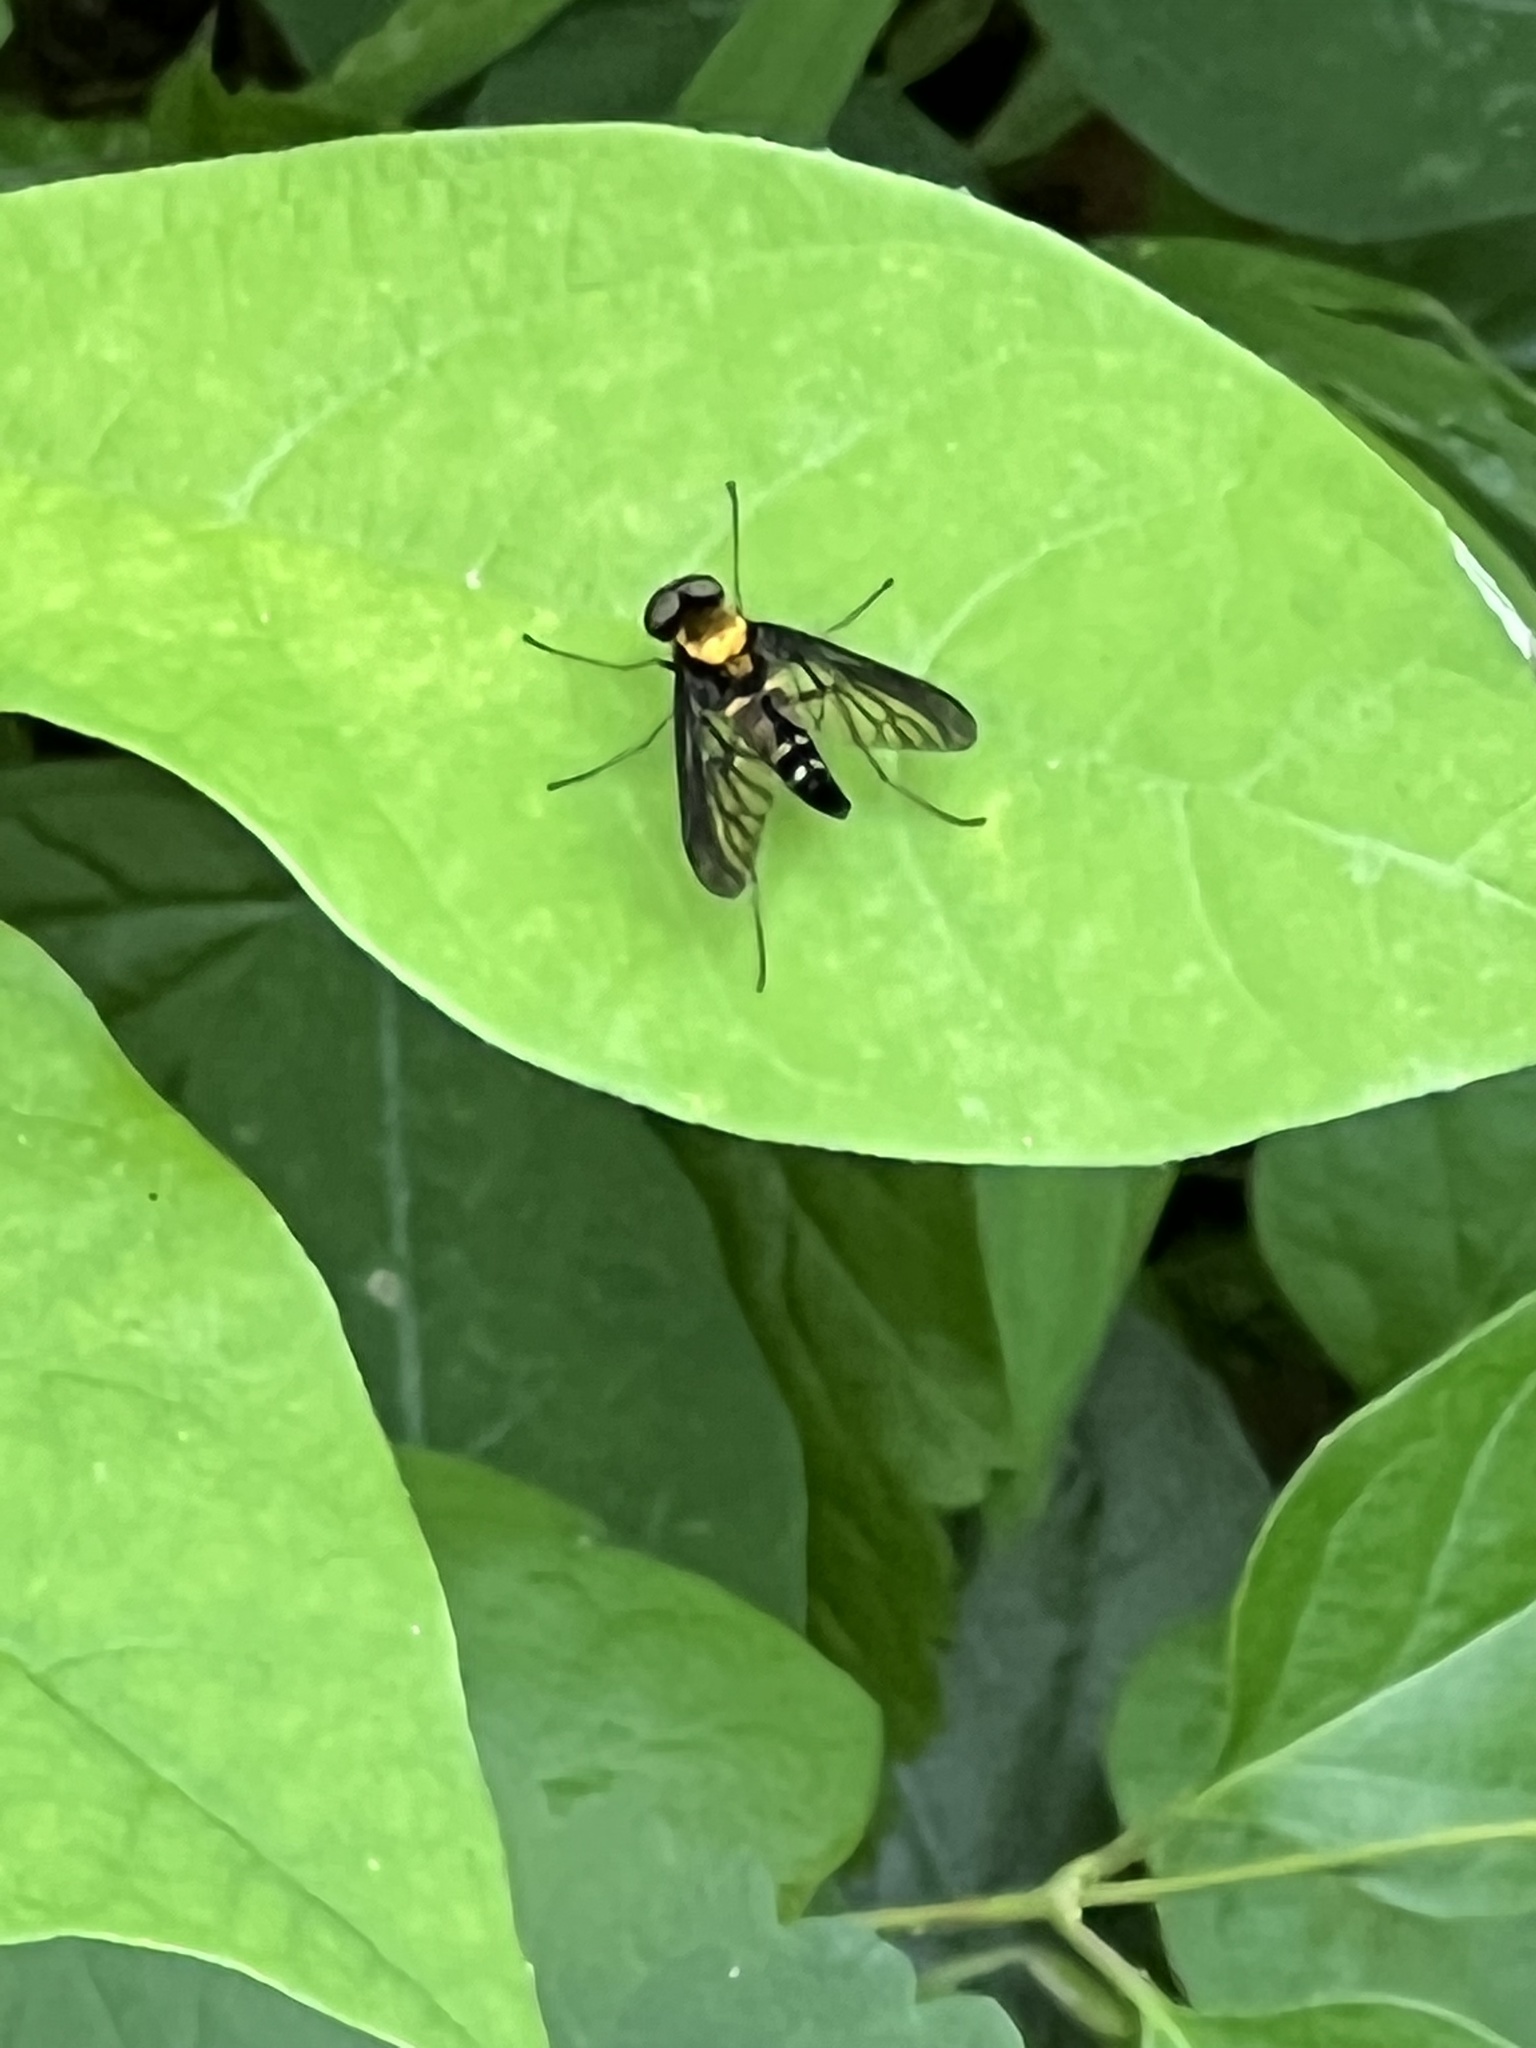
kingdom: Animalia
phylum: Arthropoda
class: Insecta
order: Diptera
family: Rhagionidae
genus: Chrysopilus
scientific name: Chrysopilus thoracicus
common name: Golden-backed snipe fly
